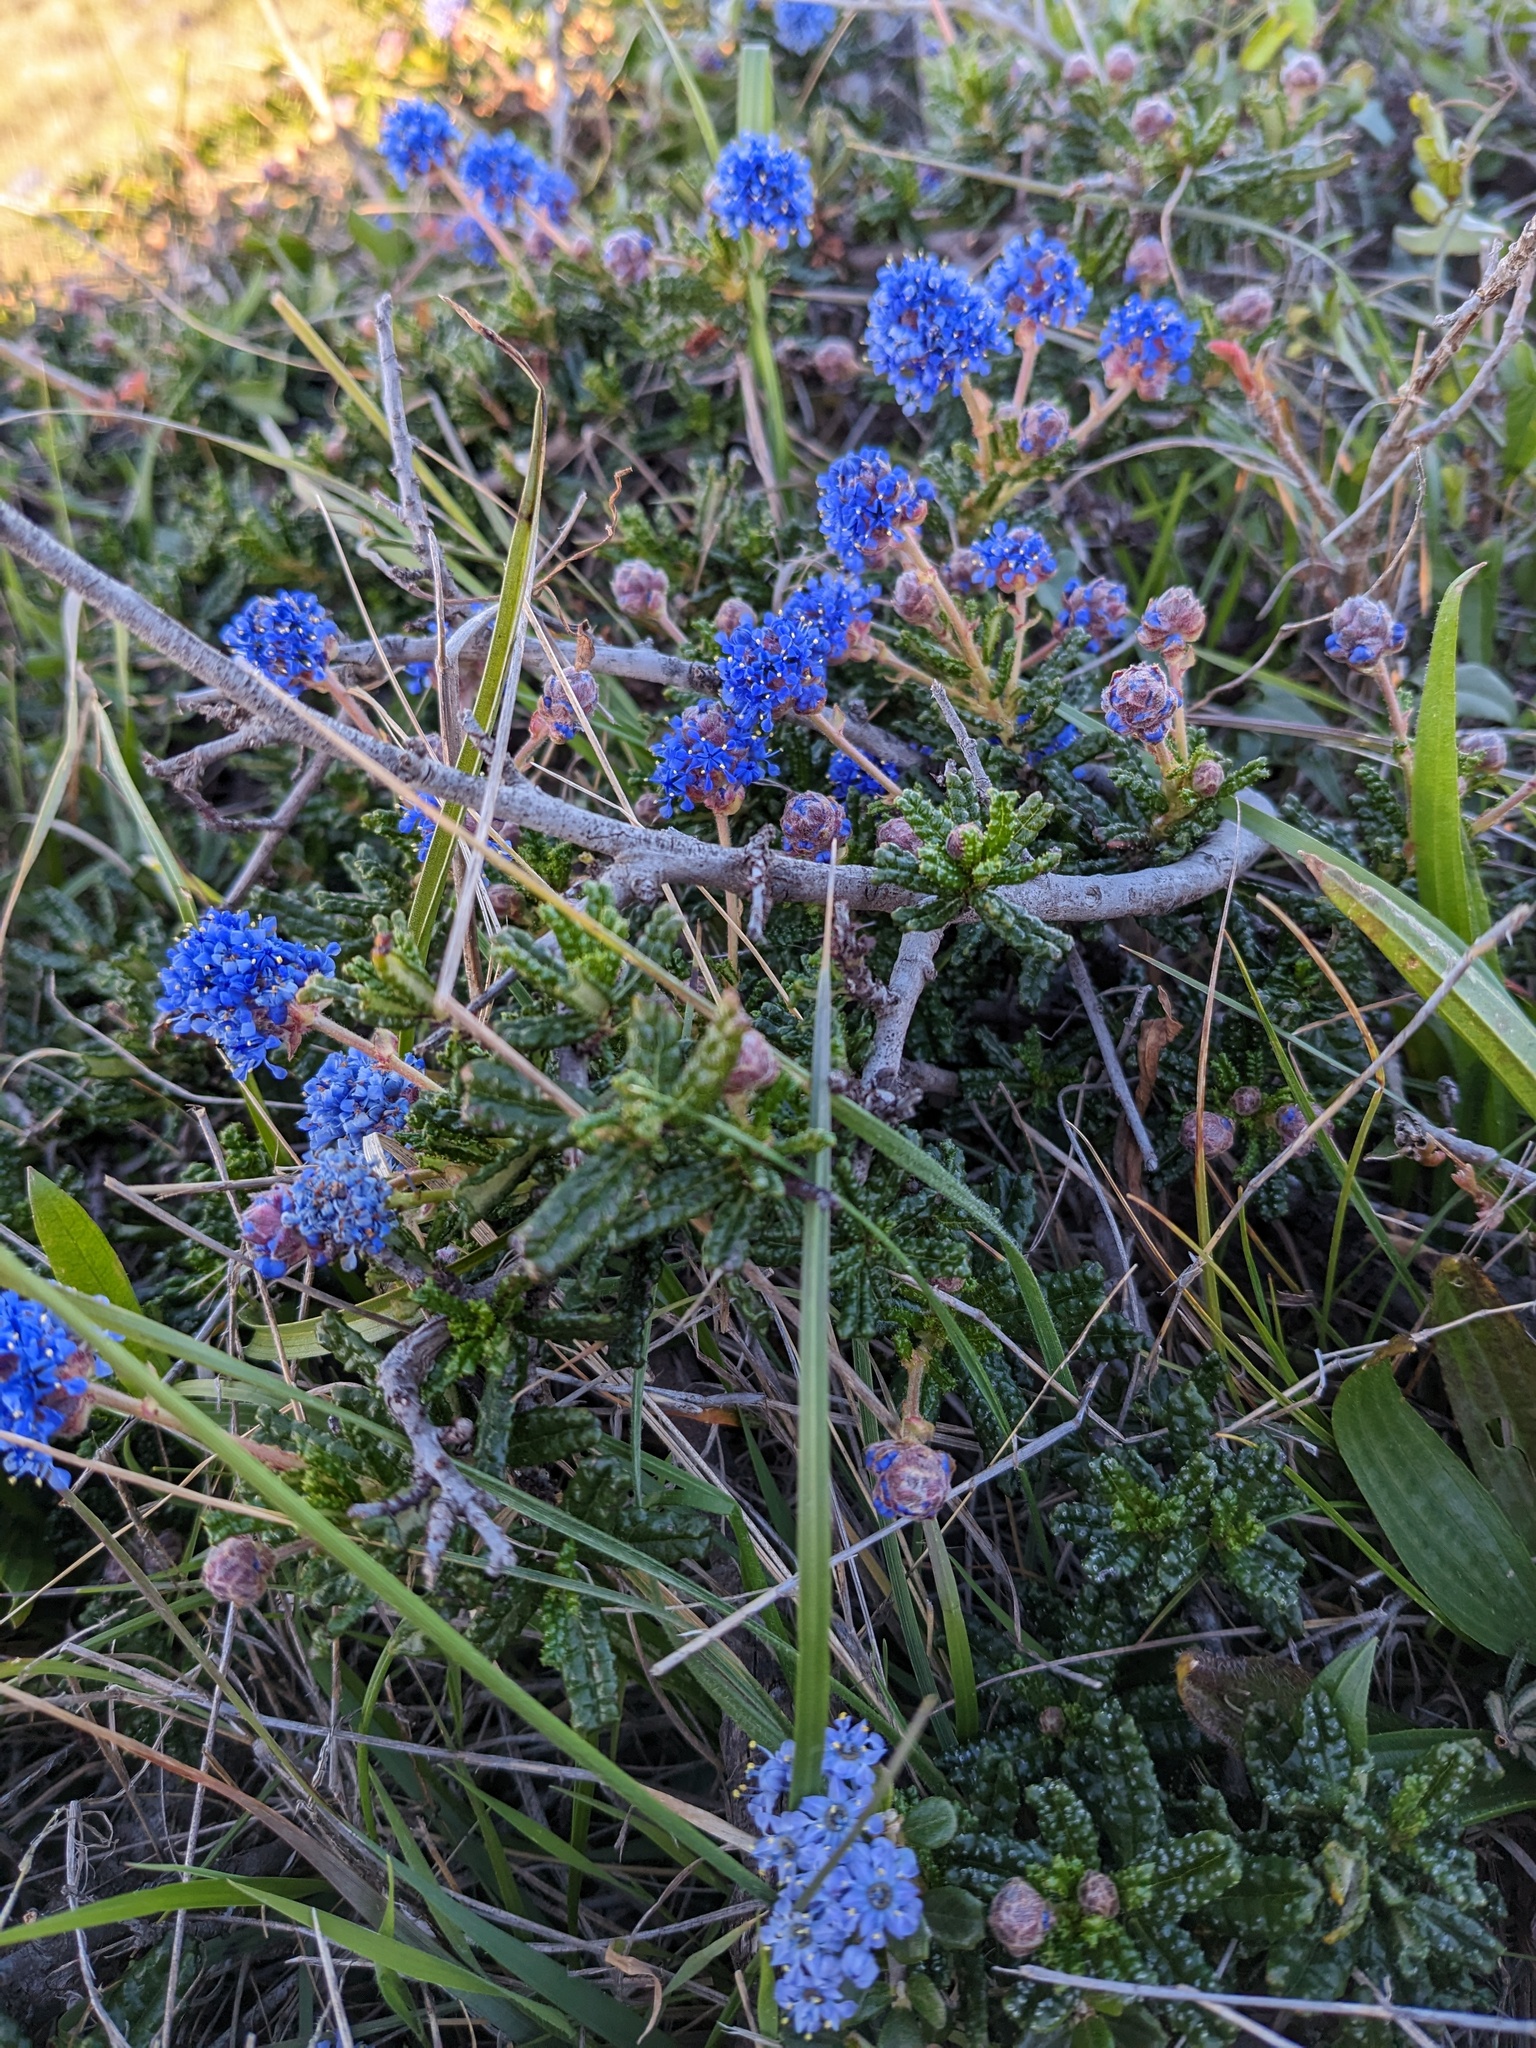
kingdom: Plantae
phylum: Tracheophyta
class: Magnoliopsida
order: Rosales
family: Rhamnaceae
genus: Ceanothus
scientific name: Ceanothus hearstiorum
